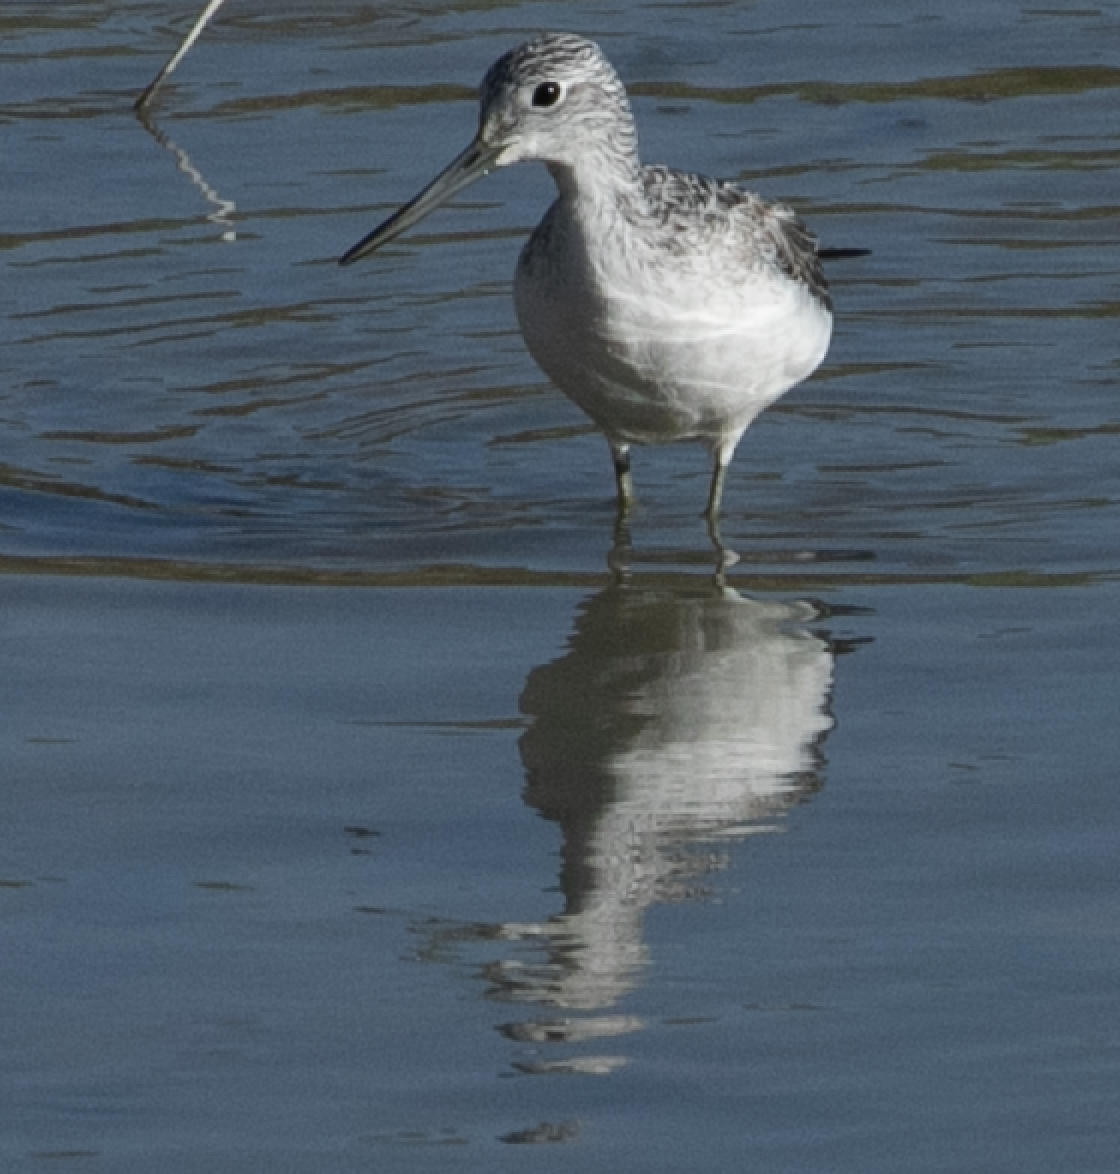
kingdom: Animalia
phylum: Chordata
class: Aves
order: Charadriiformes
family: Scolopacidae
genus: Tringa
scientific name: Tringa nebularia
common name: Common greenshank
